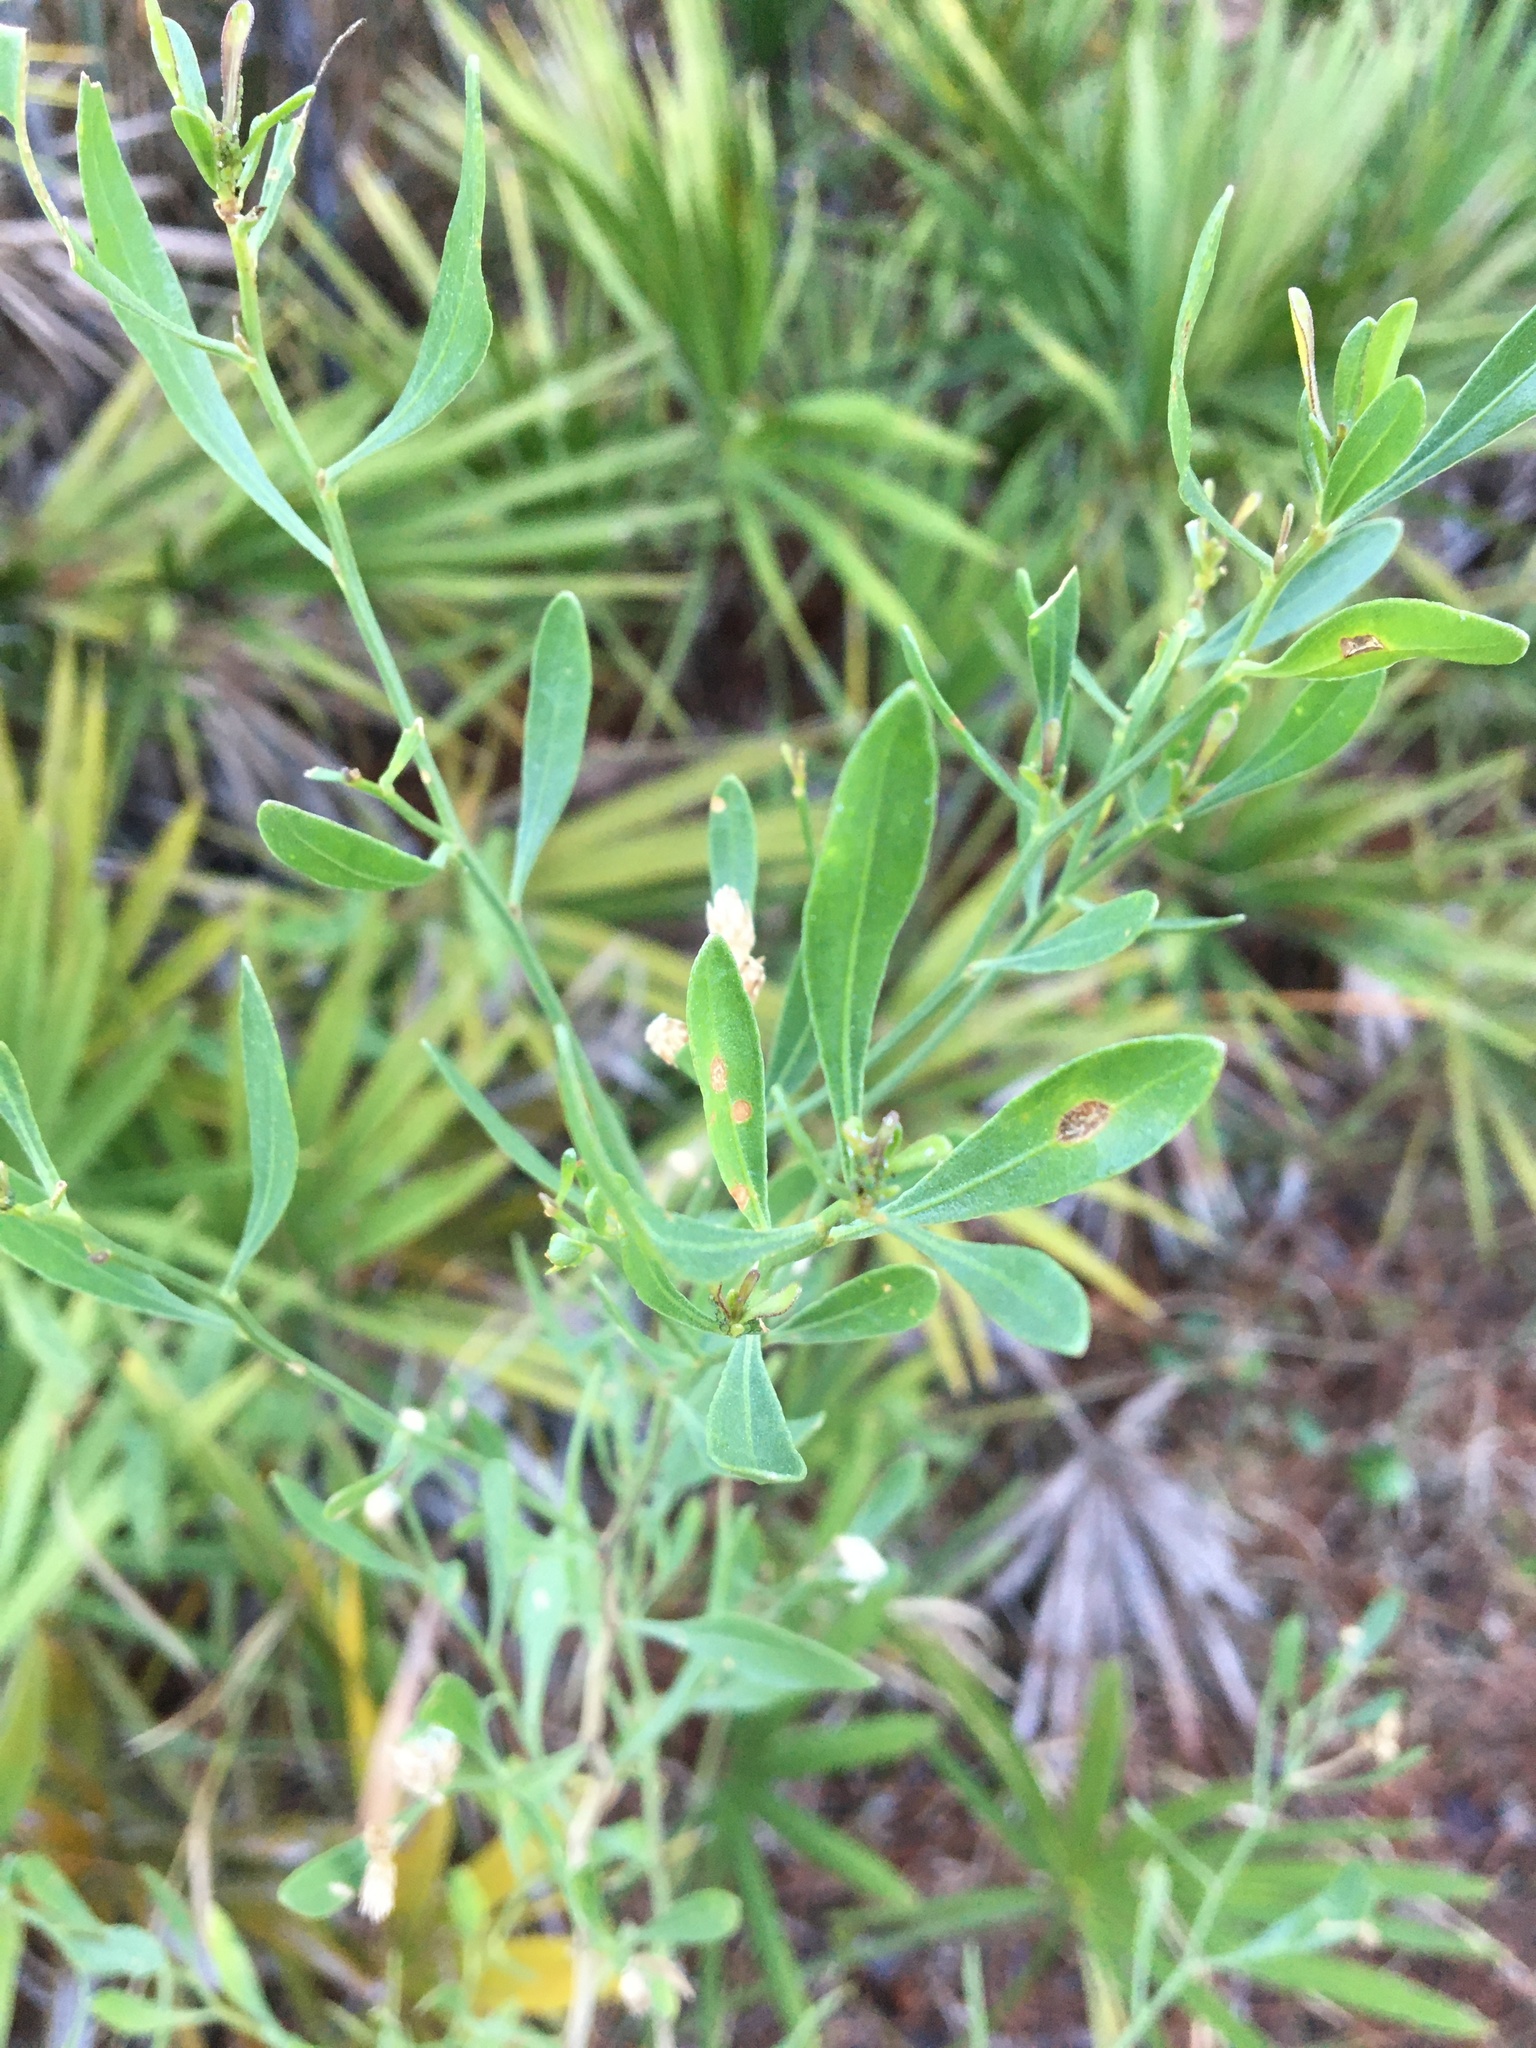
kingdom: Plantae
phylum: Tracheophyta
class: Magnoliopsida
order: Asterales
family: Asteraceae
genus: Baccharis
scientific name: Baccharis halimifolia
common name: Eastern baccharis
